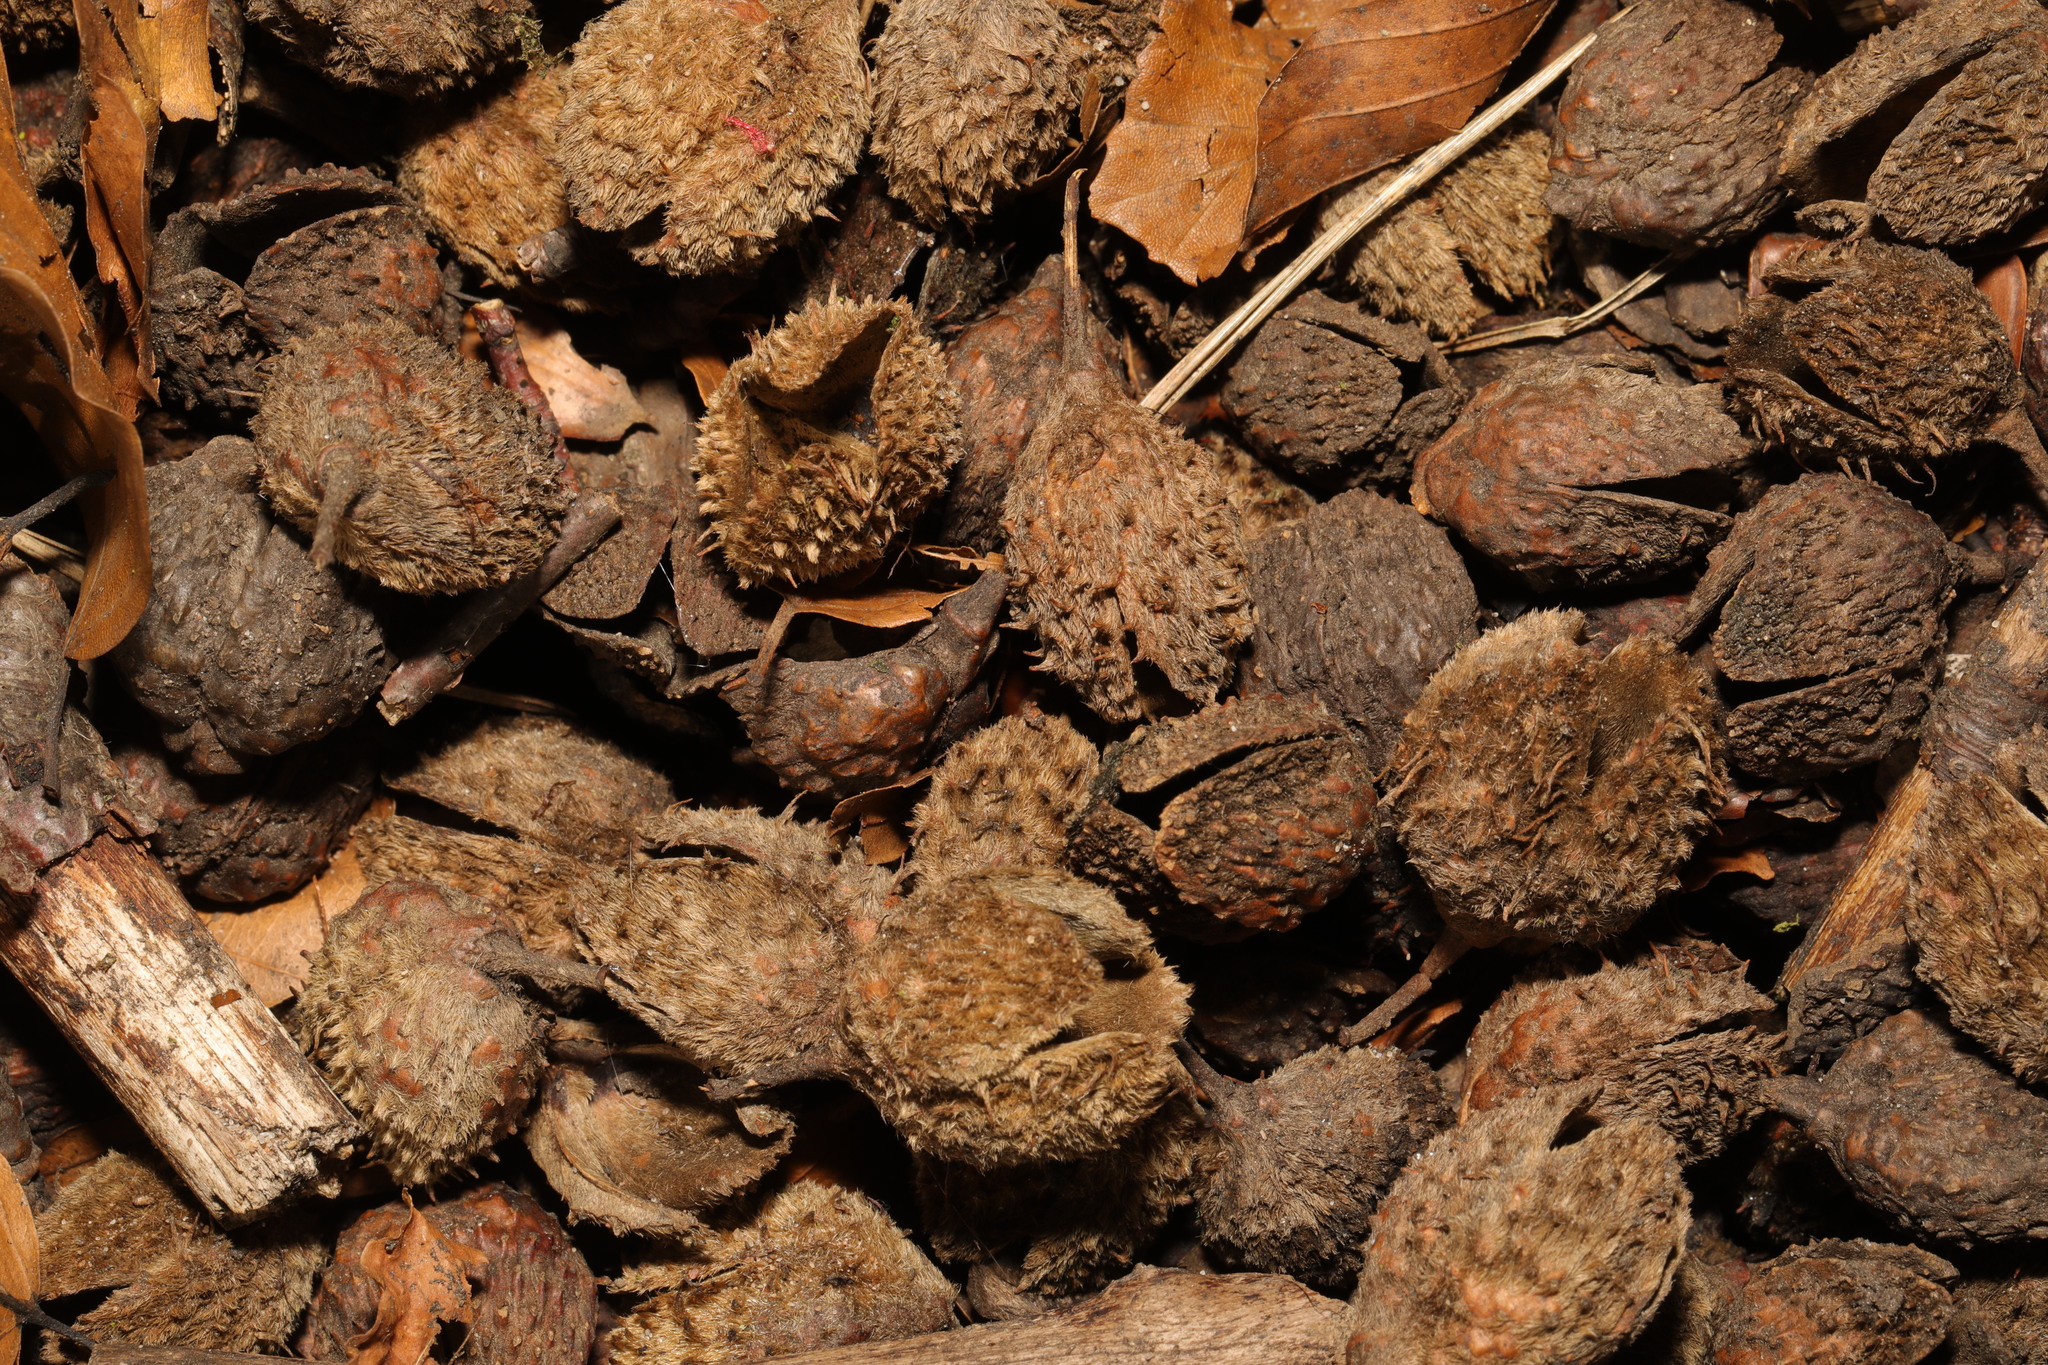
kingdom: Plantae
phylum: Tracheophyta
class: Magnoliopsida
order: Fagales
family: Fagaceae
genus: Fagus
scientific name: Fagus sylvatica
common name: Beech
